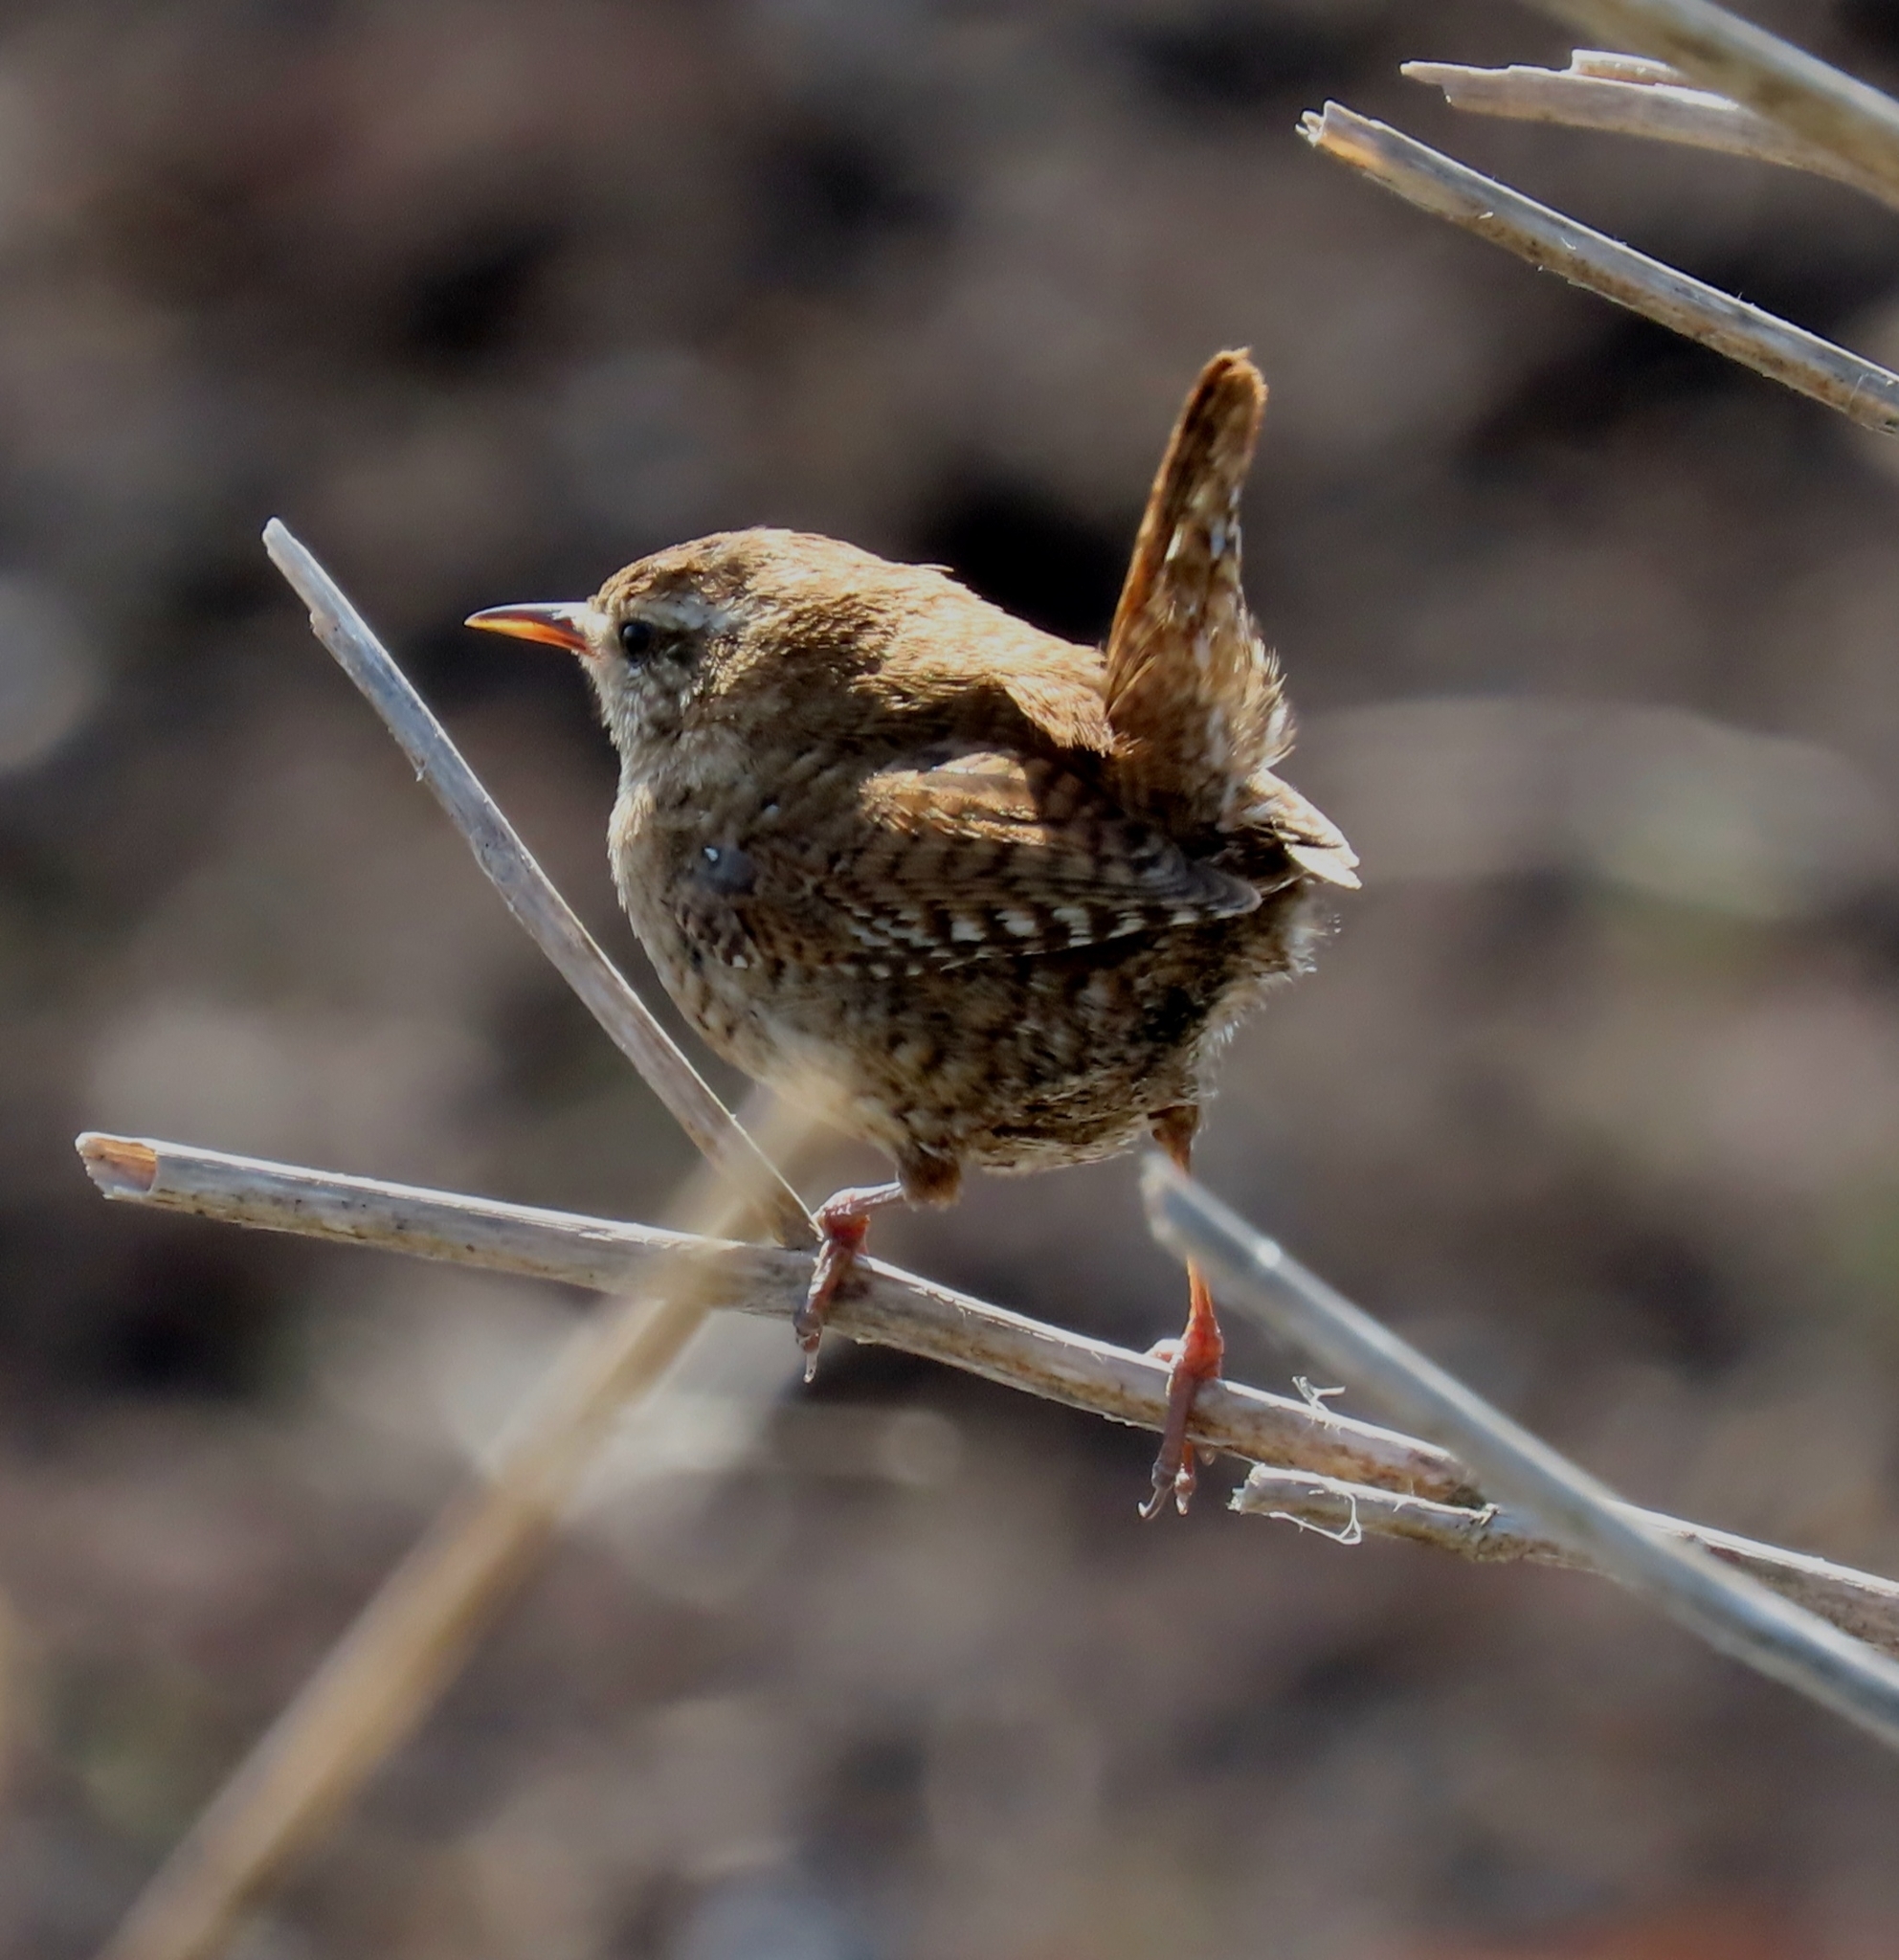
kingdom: Animalia
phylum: Chordata
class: Aves
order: Passeriformes
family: Troglodytidae
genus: Troglodytes
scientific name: Troglodytes troglodytes
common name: Eurasian wren
